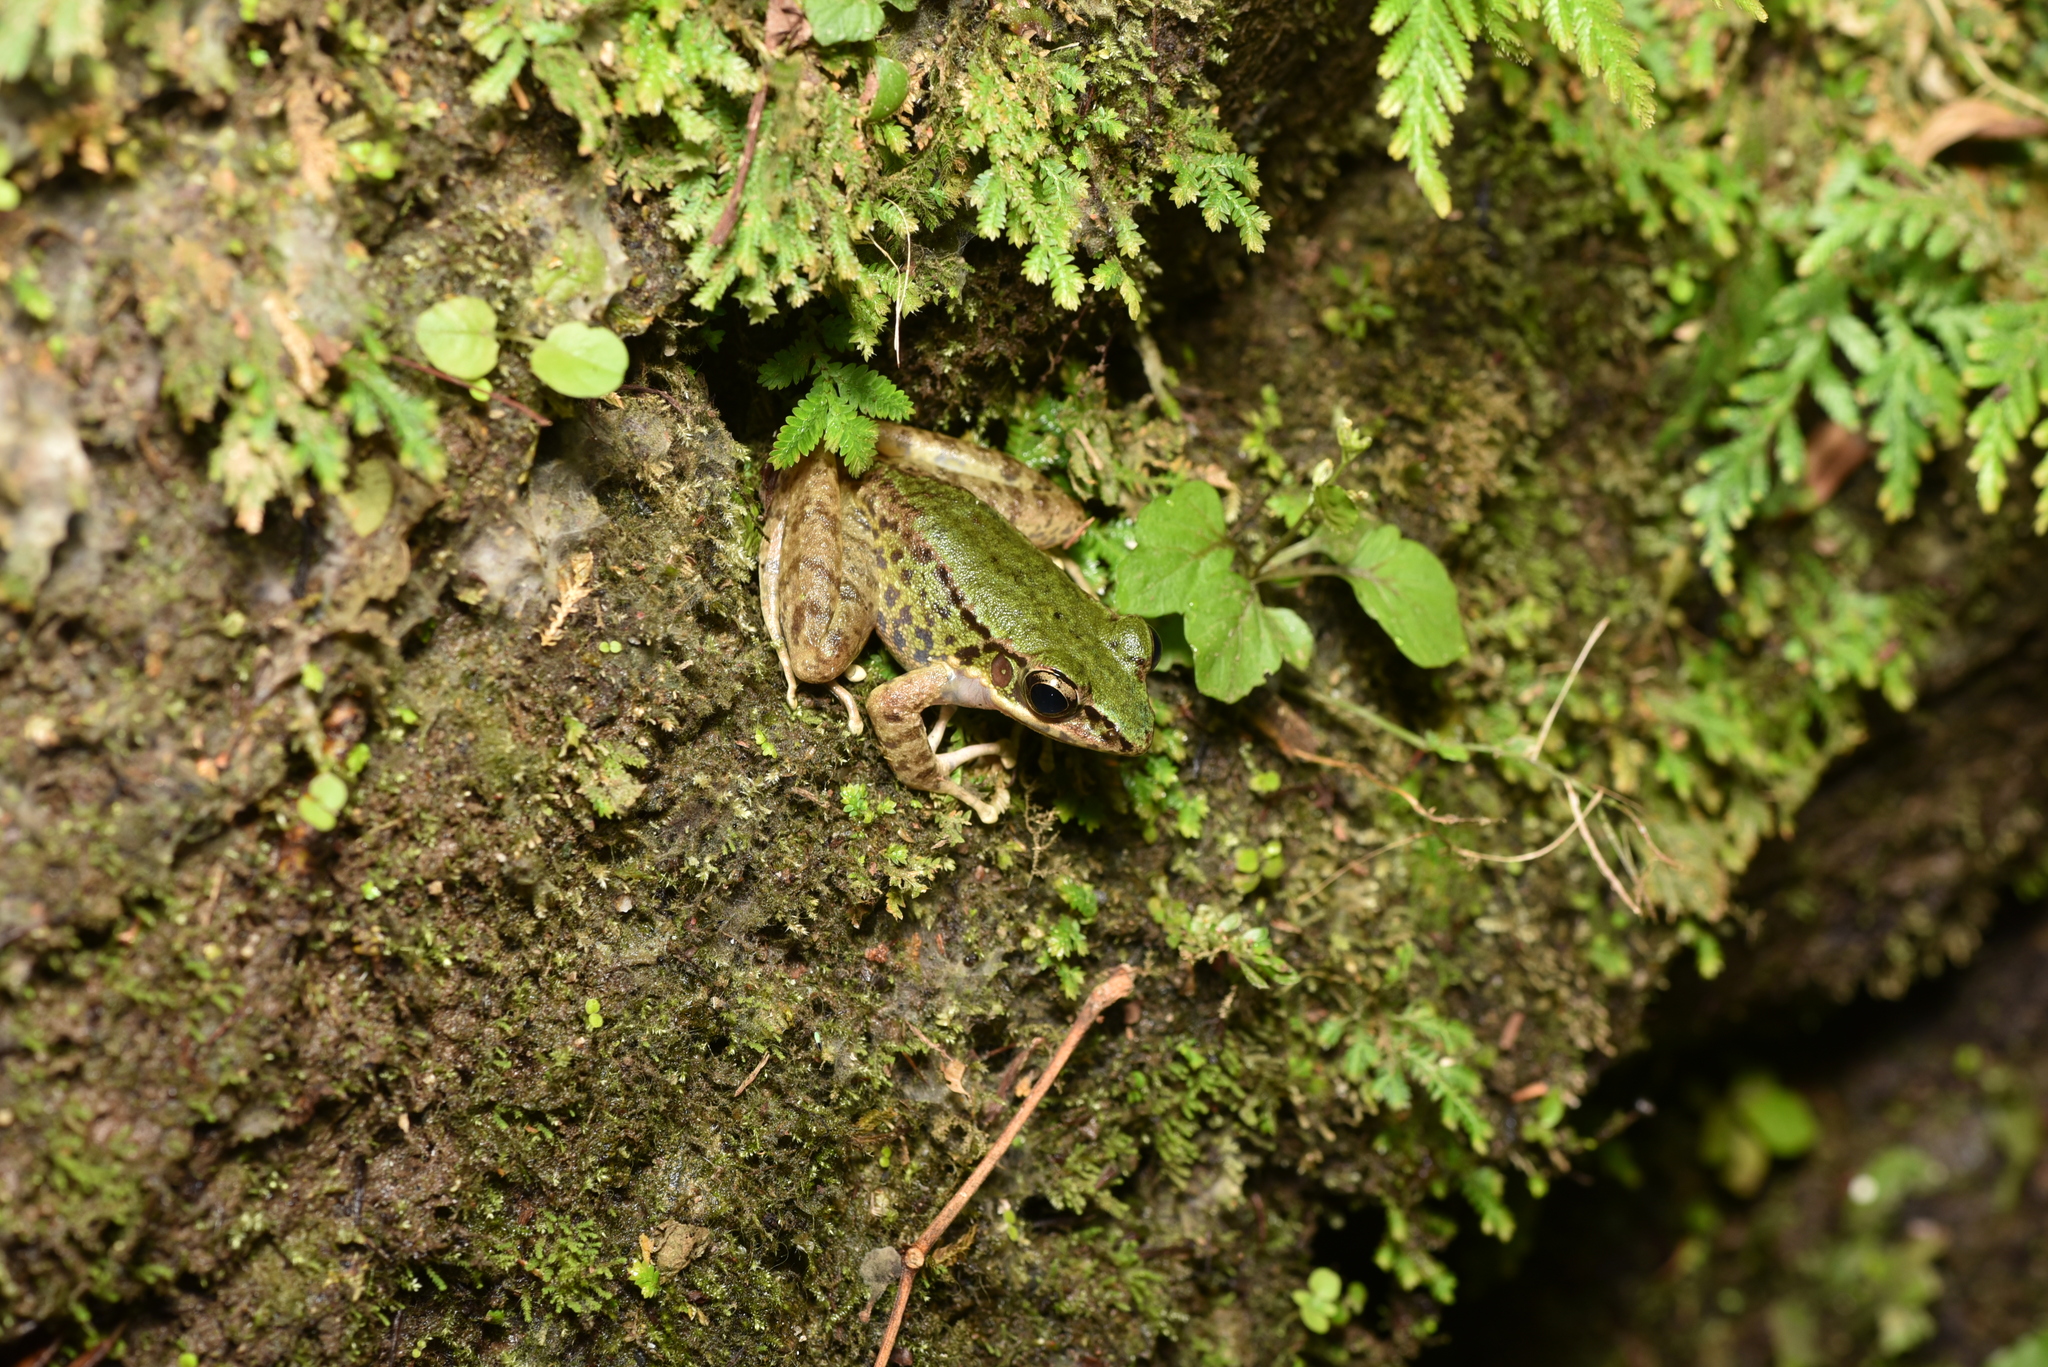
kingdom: Animalia
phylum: Chordata
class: Amphibia
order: Anura
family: Ranidae
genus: Odorrana
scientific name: Odorrana swinhoana
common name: Bangkimtsing frog
